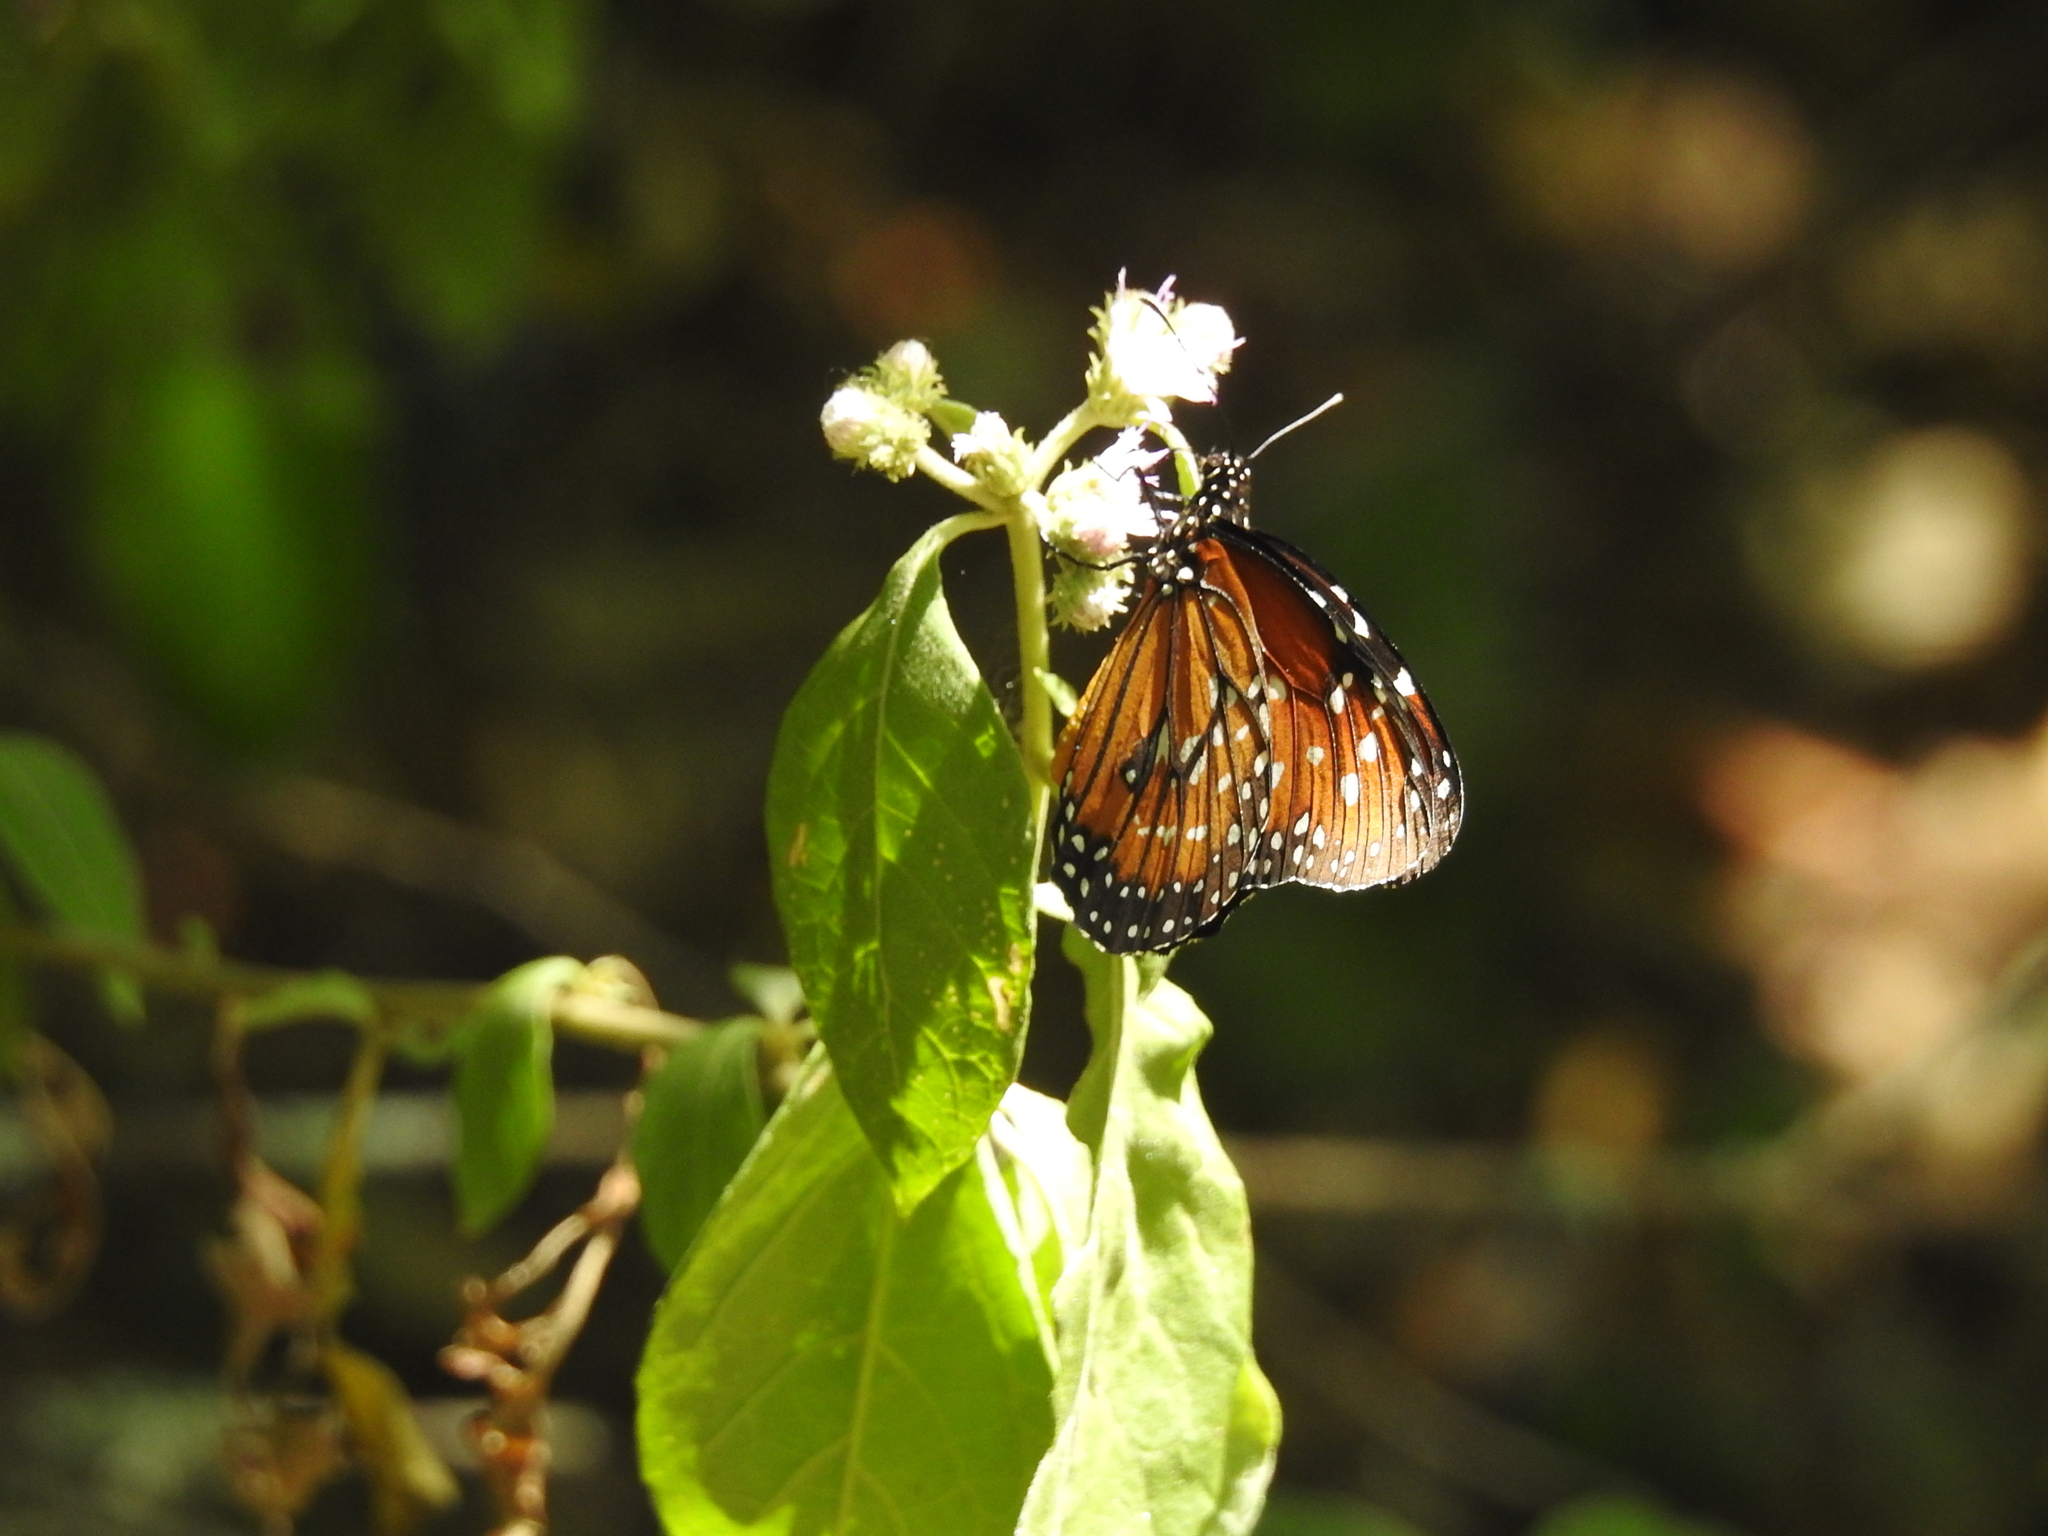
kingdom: Animalia
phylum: Arthropoda
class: Insecta
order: Lepidoptera
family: Nymphalidae
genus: Danaus
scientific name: Danaus eresimus
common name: Soldier
